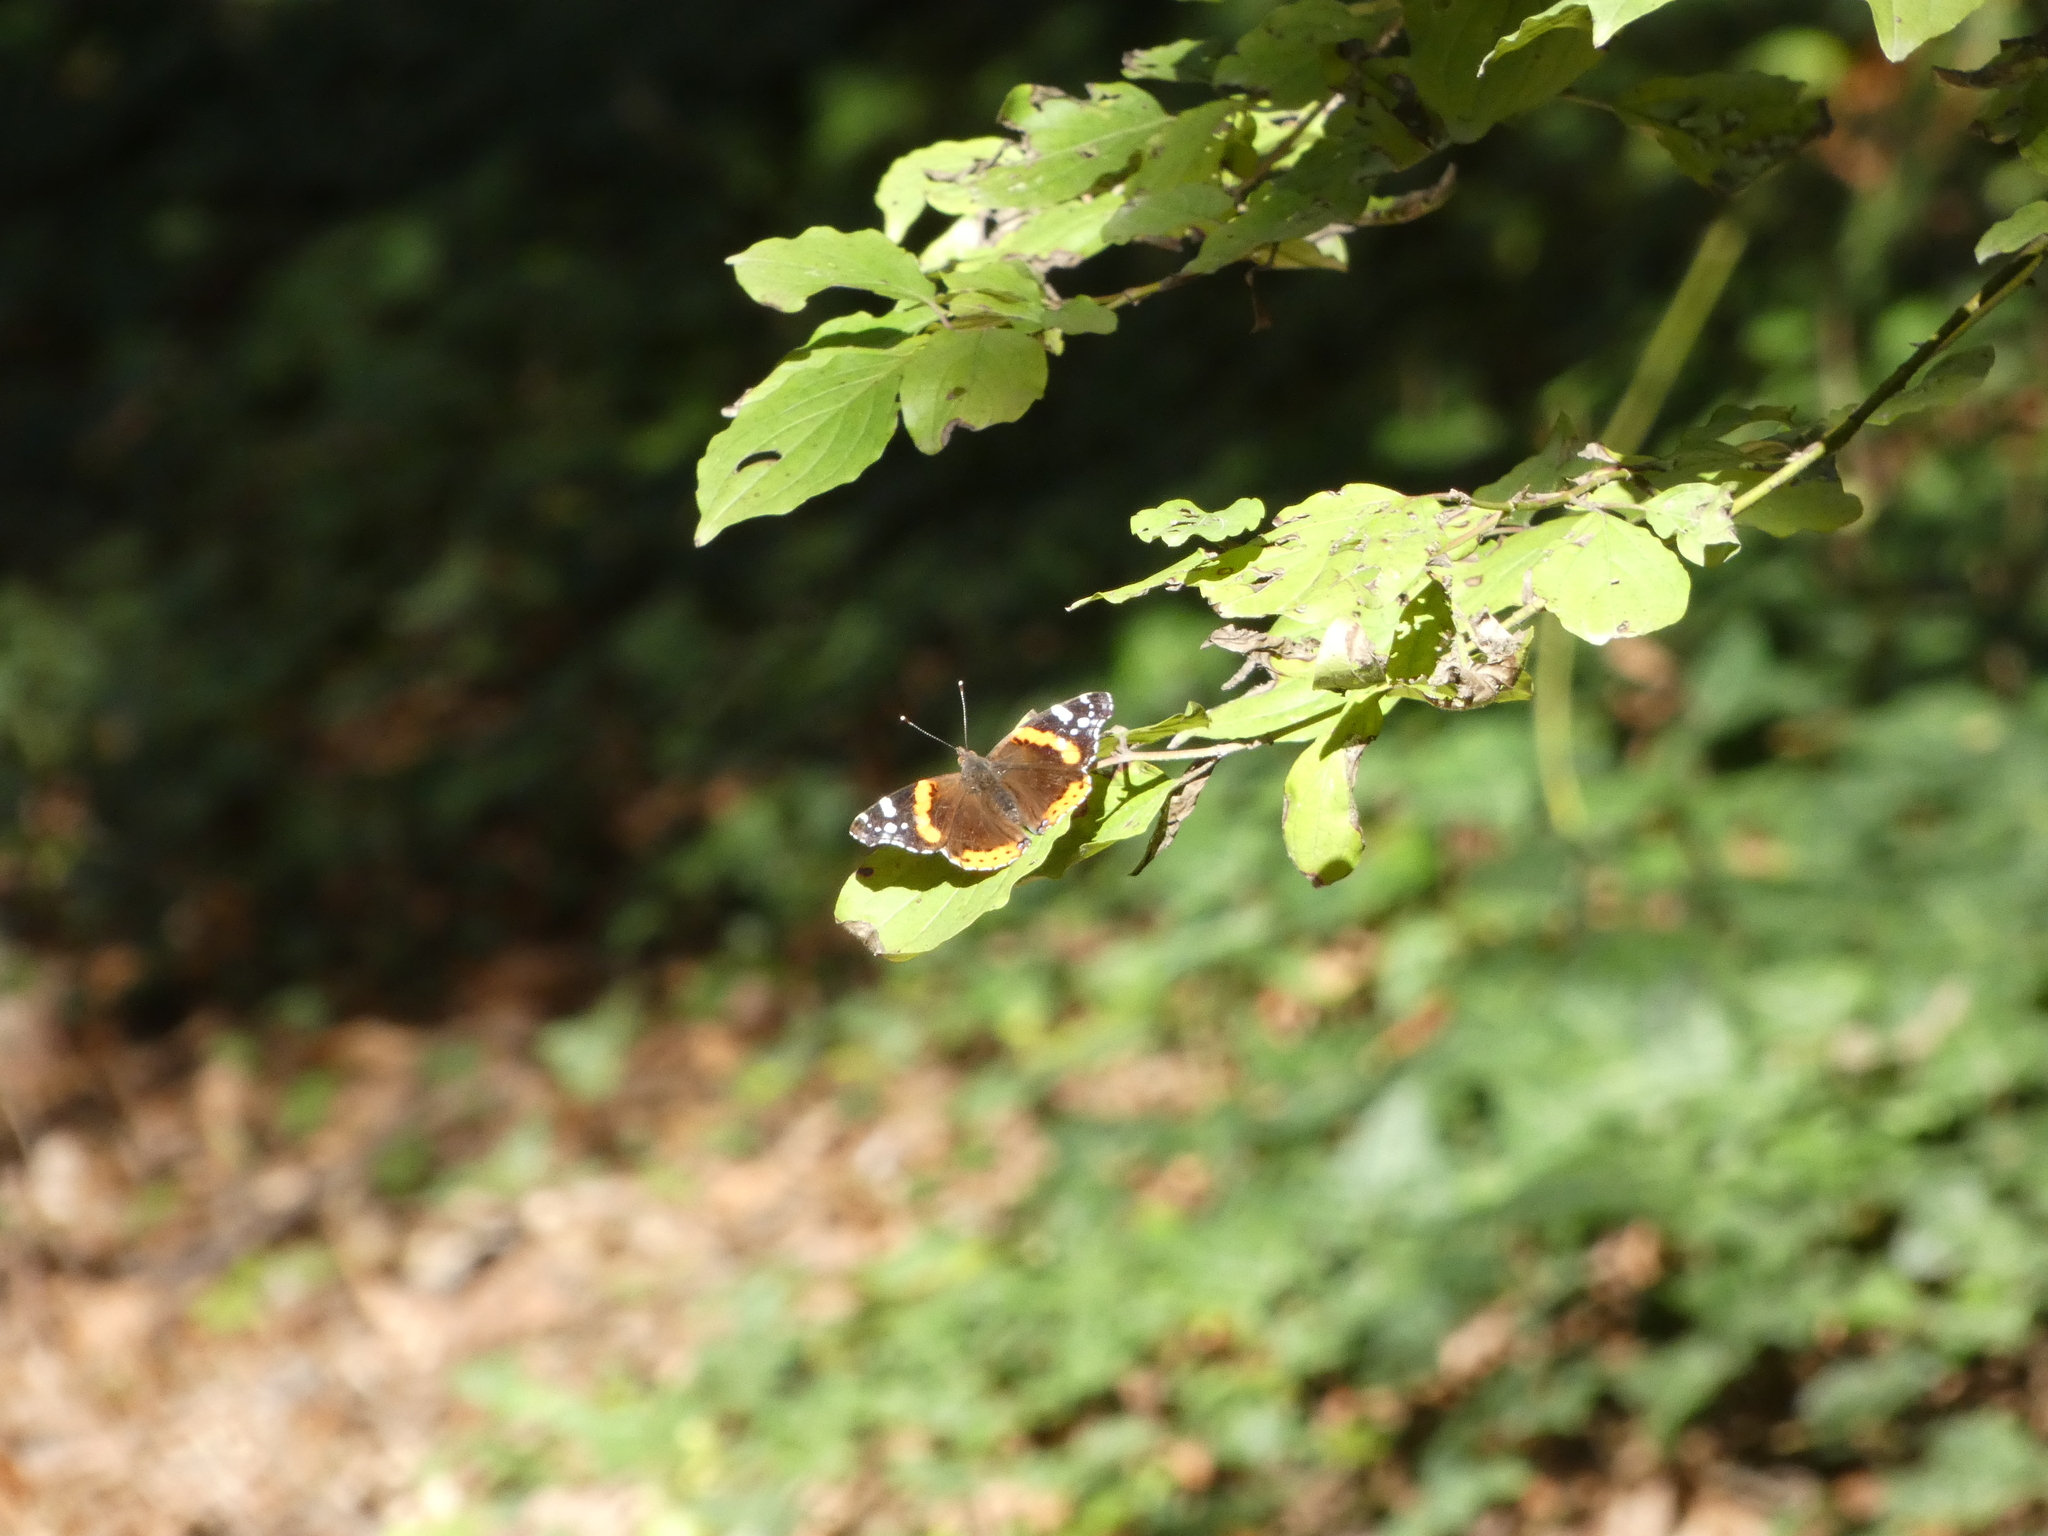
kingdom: Animalia
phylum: Arthropoda
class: Insecta
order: Lepidoptera
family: Nymphalidae
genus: Vanessa
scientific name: Vanessa atalanta
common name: Red admiral
